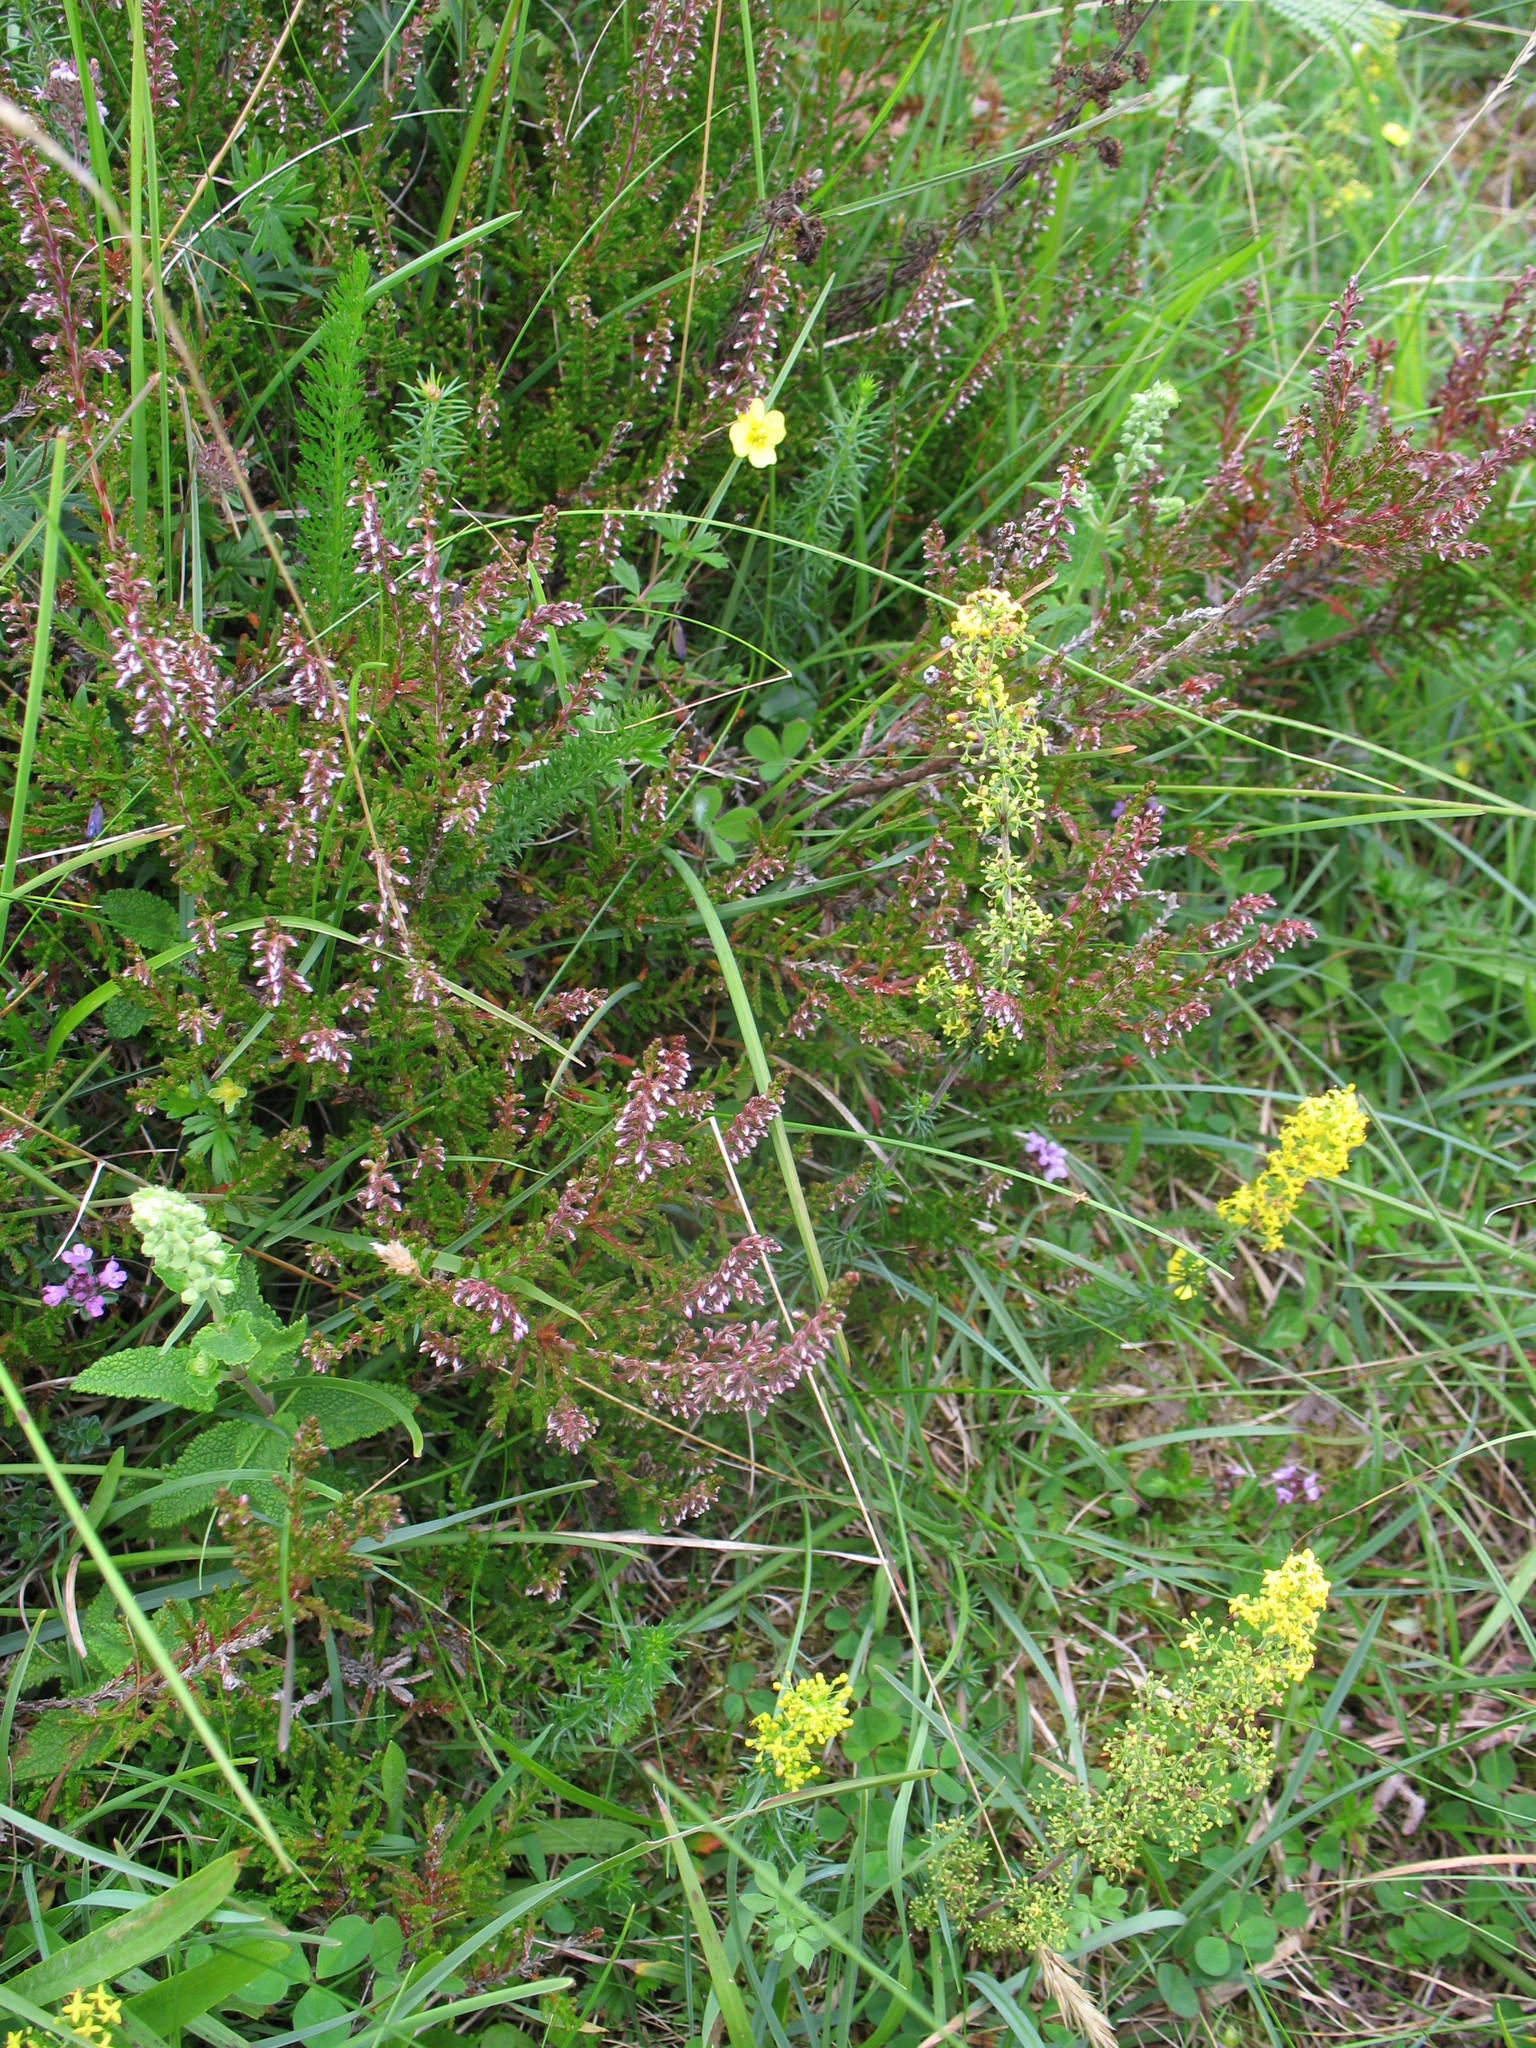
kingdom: Plantae
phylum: Tracheophyta
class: Magnoliopsida
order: Ericales
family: Ericaceae
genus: Calluna
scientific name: Calluna vulgaris
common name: Heather
